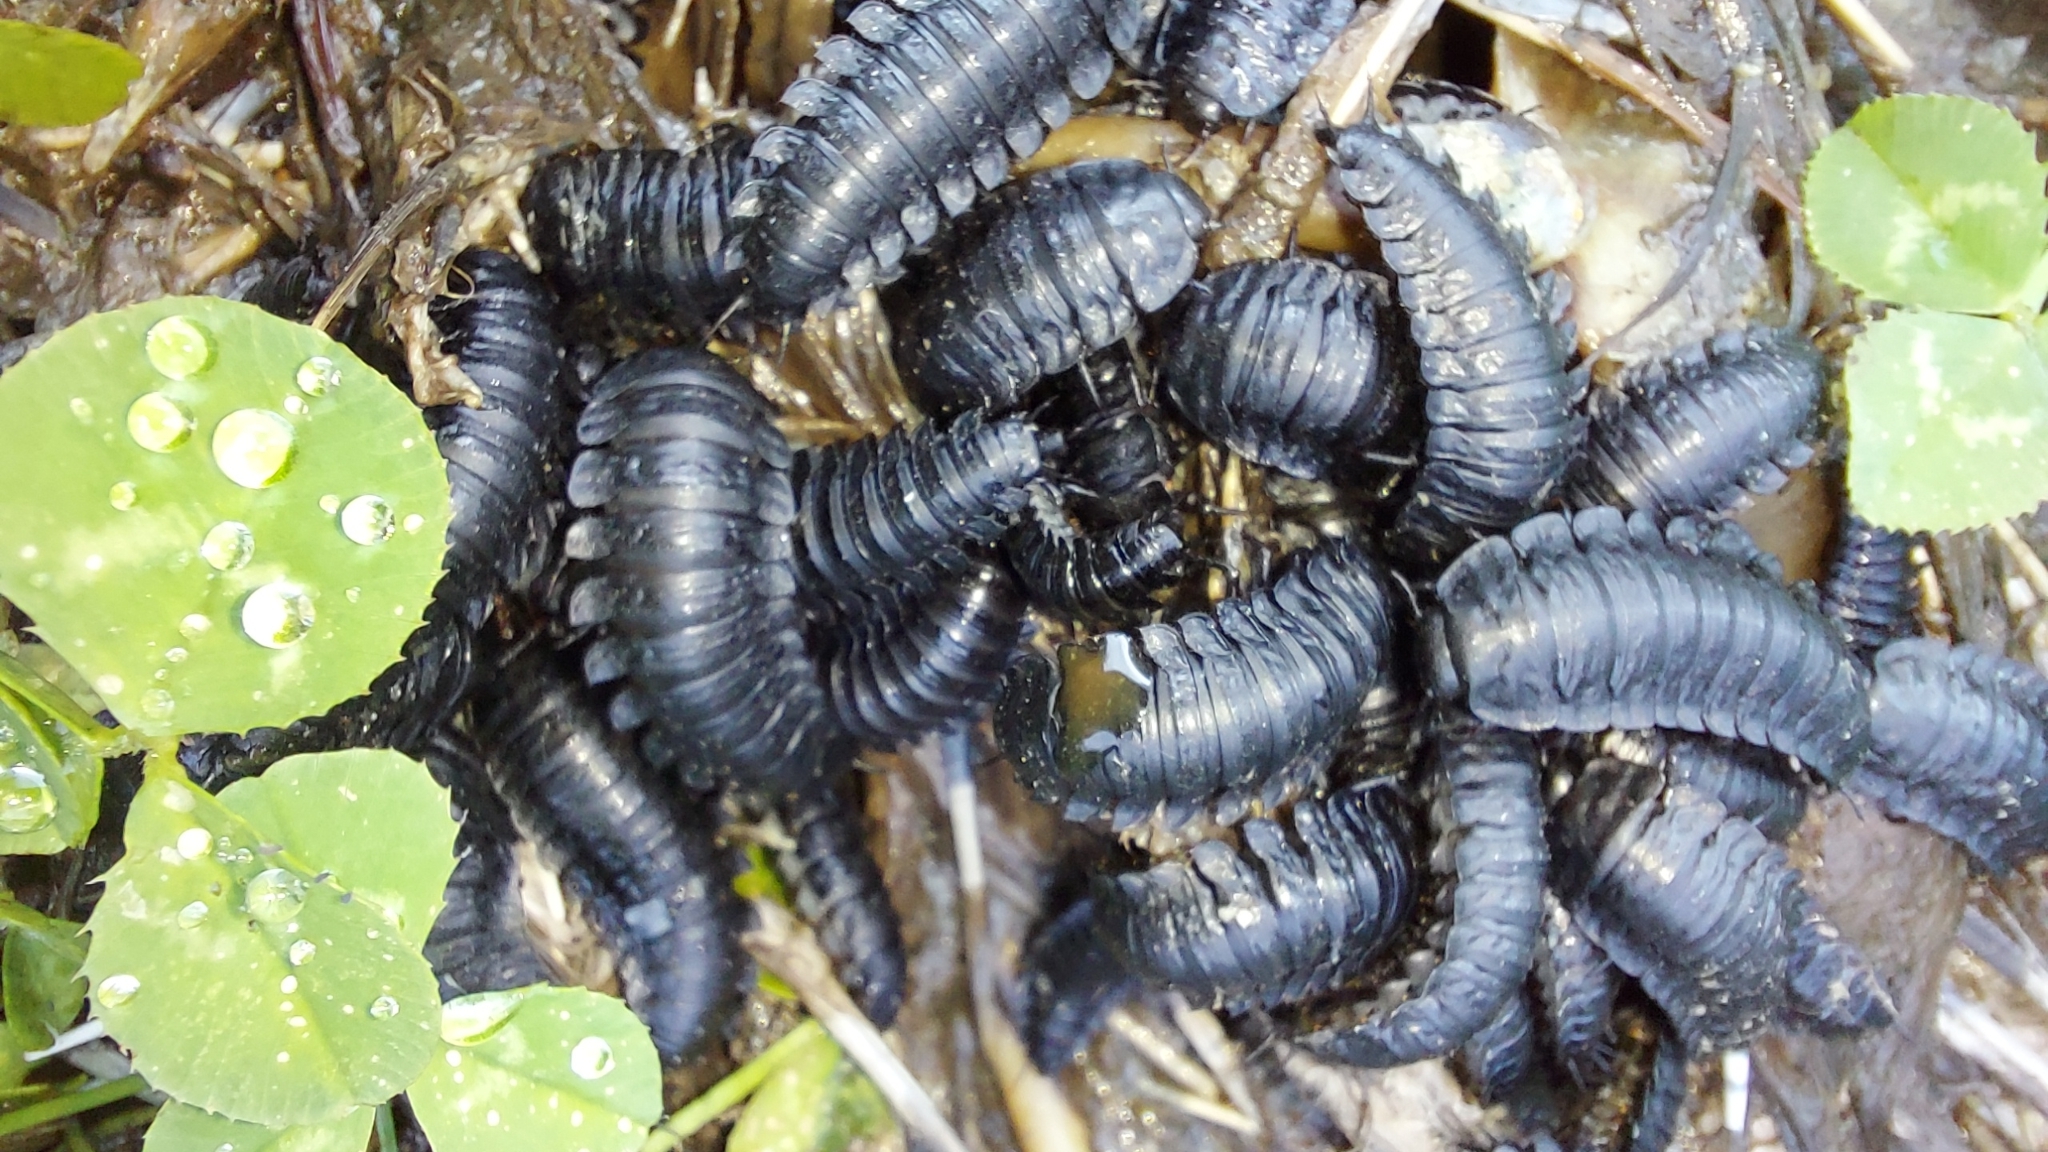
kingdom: Animalia
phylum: Arthropoda
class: Insecta
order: Coleoptera
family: Staphylinidae
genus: Ptomaphila
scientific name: Ptomaphila lacrymosa
